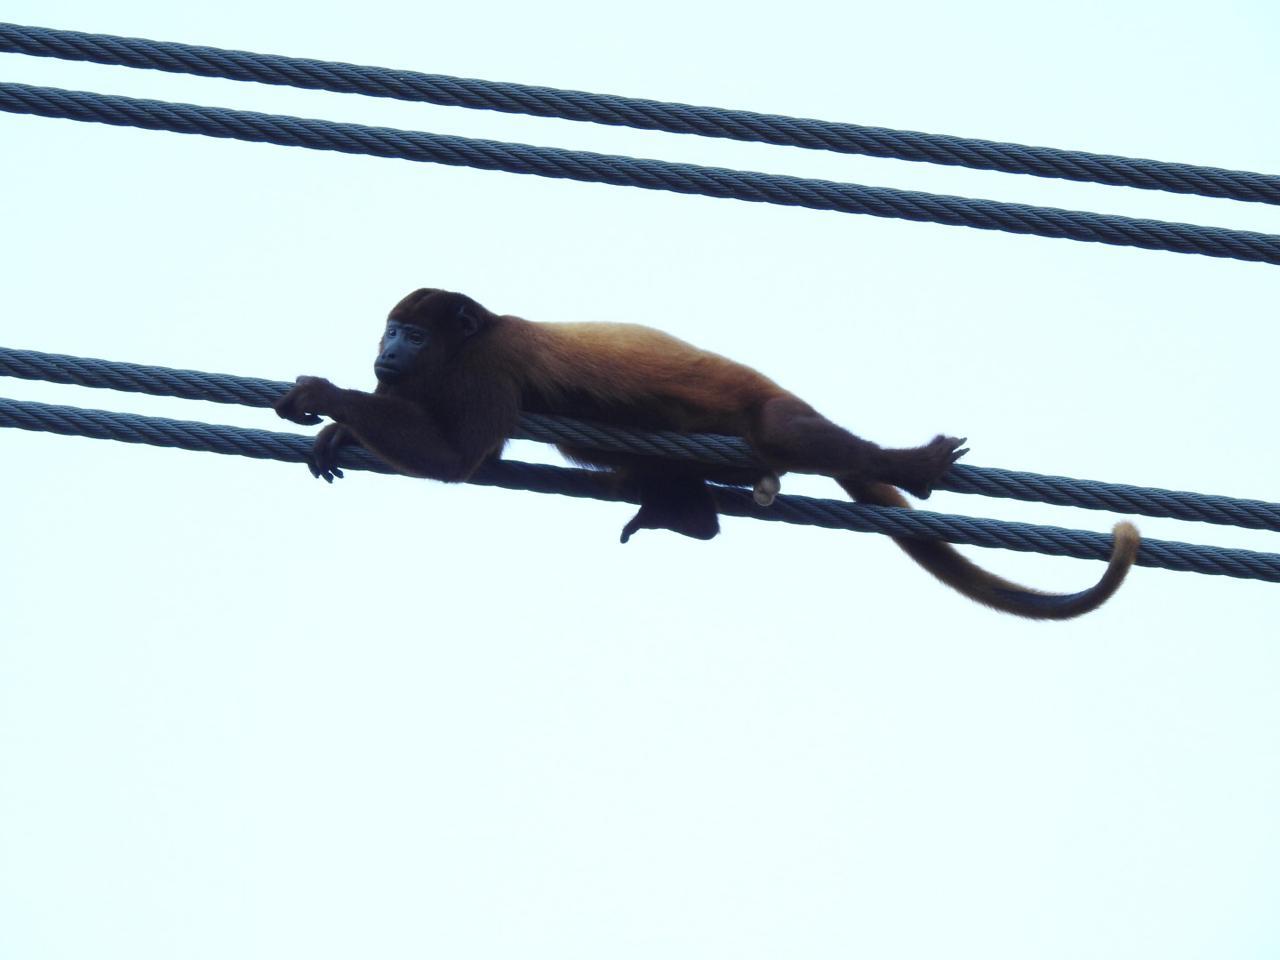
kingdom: Animalia
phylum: Chordata
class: Mammalia
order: Primates
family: Atelidae
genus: Alouatta
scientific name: Alouatta seniculus
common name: Venezuelan red howler
